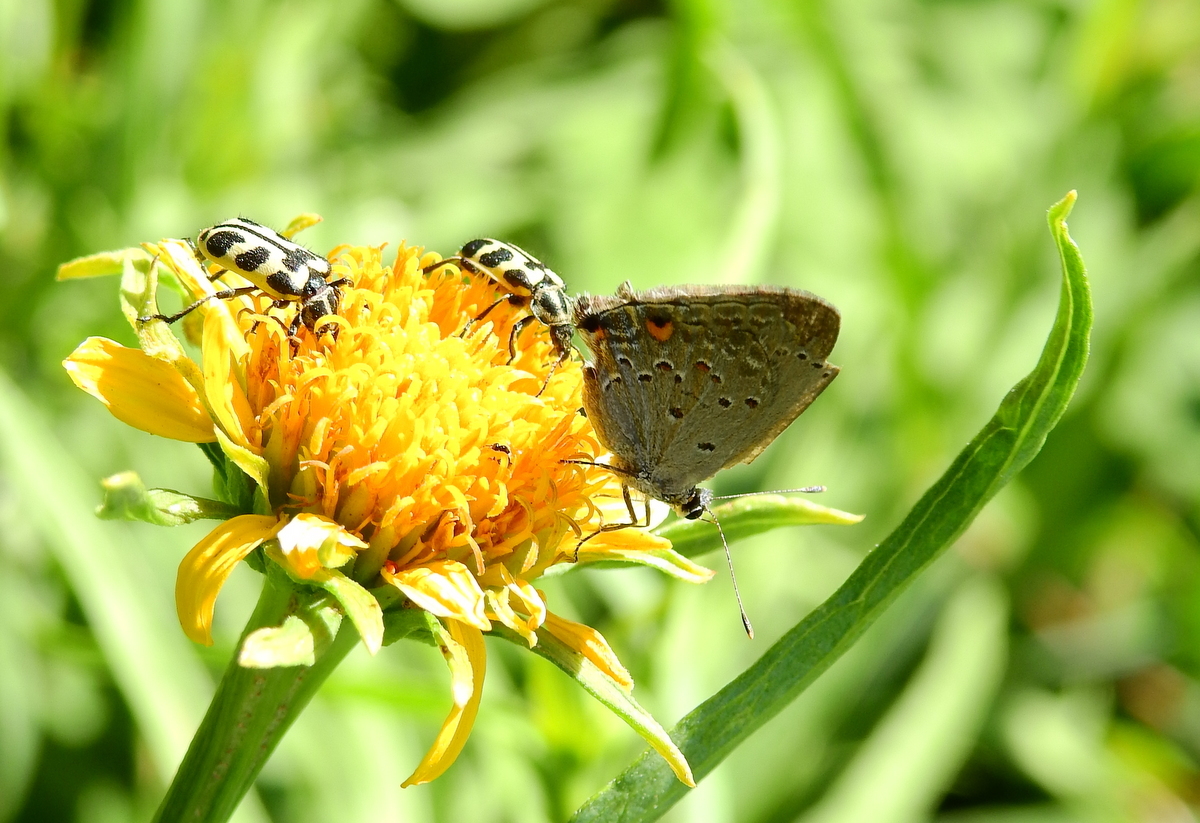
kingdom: Animalia
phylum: Arthropoda
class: Insecta
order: Coleoptera
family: Melyridae
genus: Astylus
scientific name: Astylus atromaculatus
